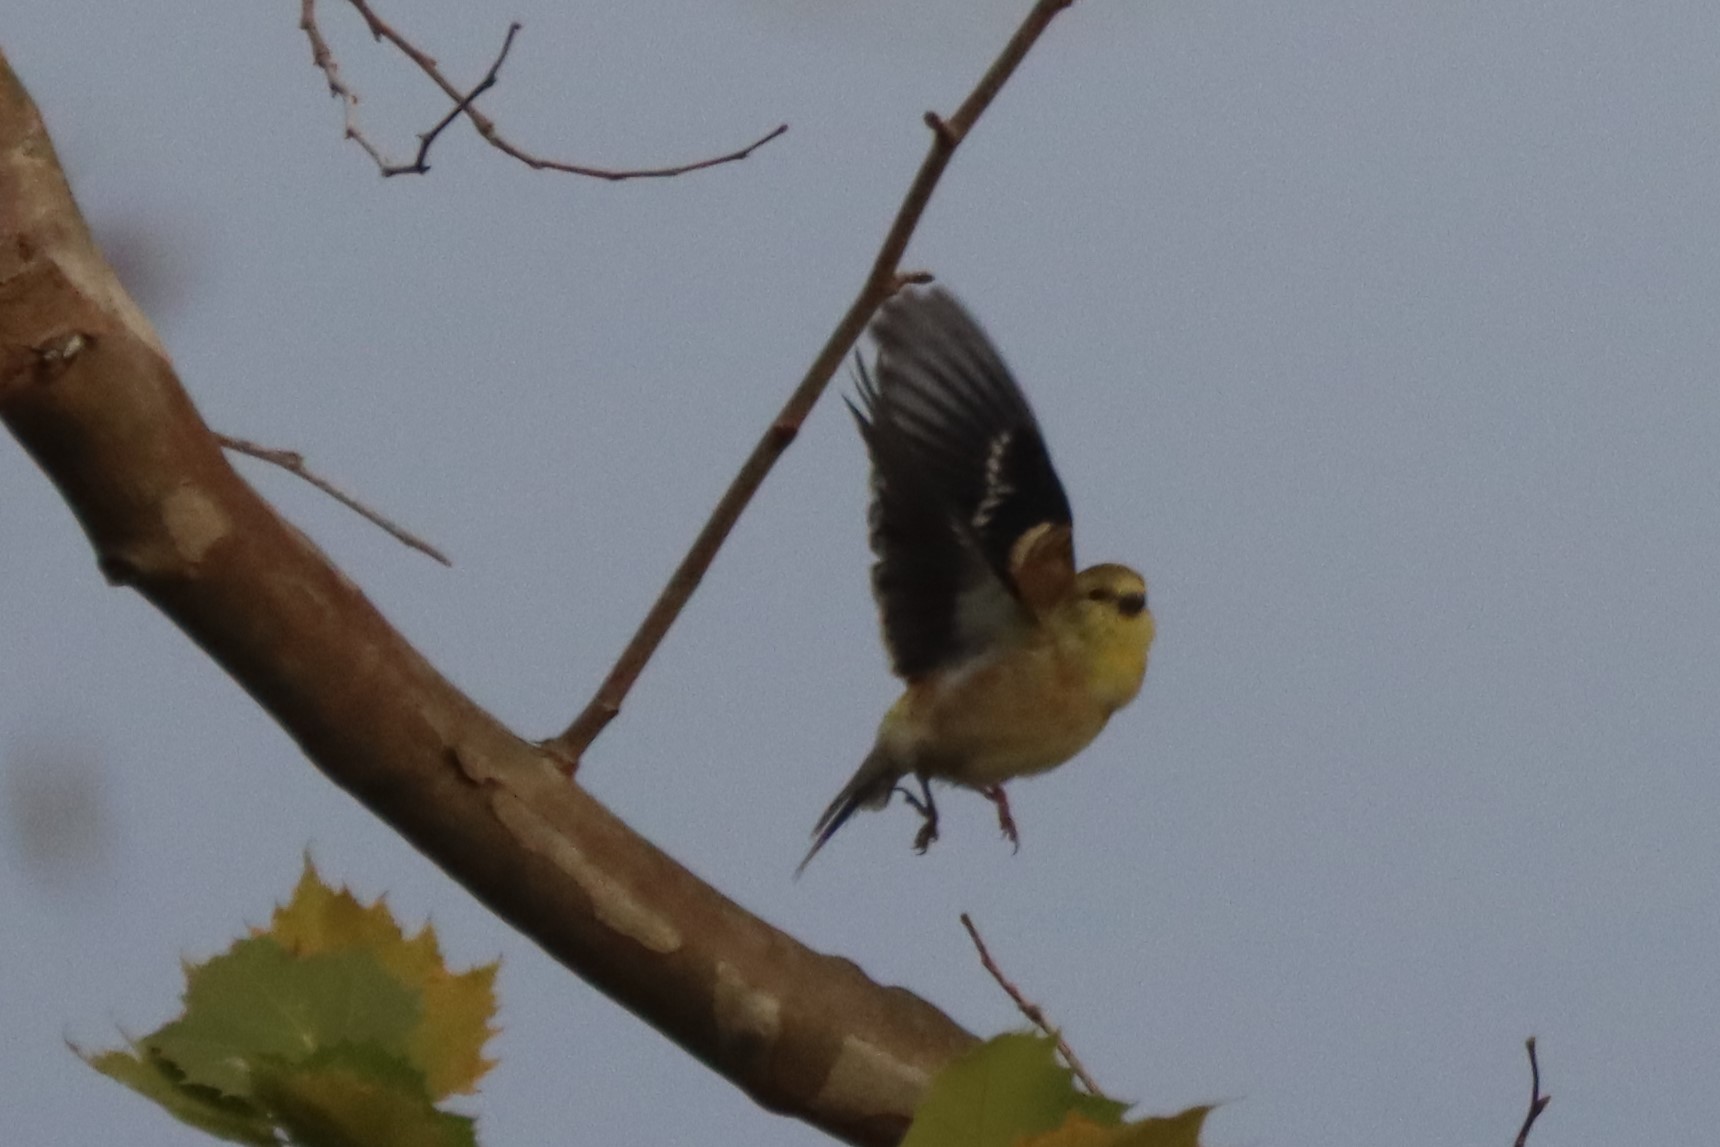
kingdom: Animalia
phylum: Chordata
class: Aves
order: Passeriformes
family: Fringillidae
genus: Spinus
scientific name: Spinus tristis
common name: American goldfinch
